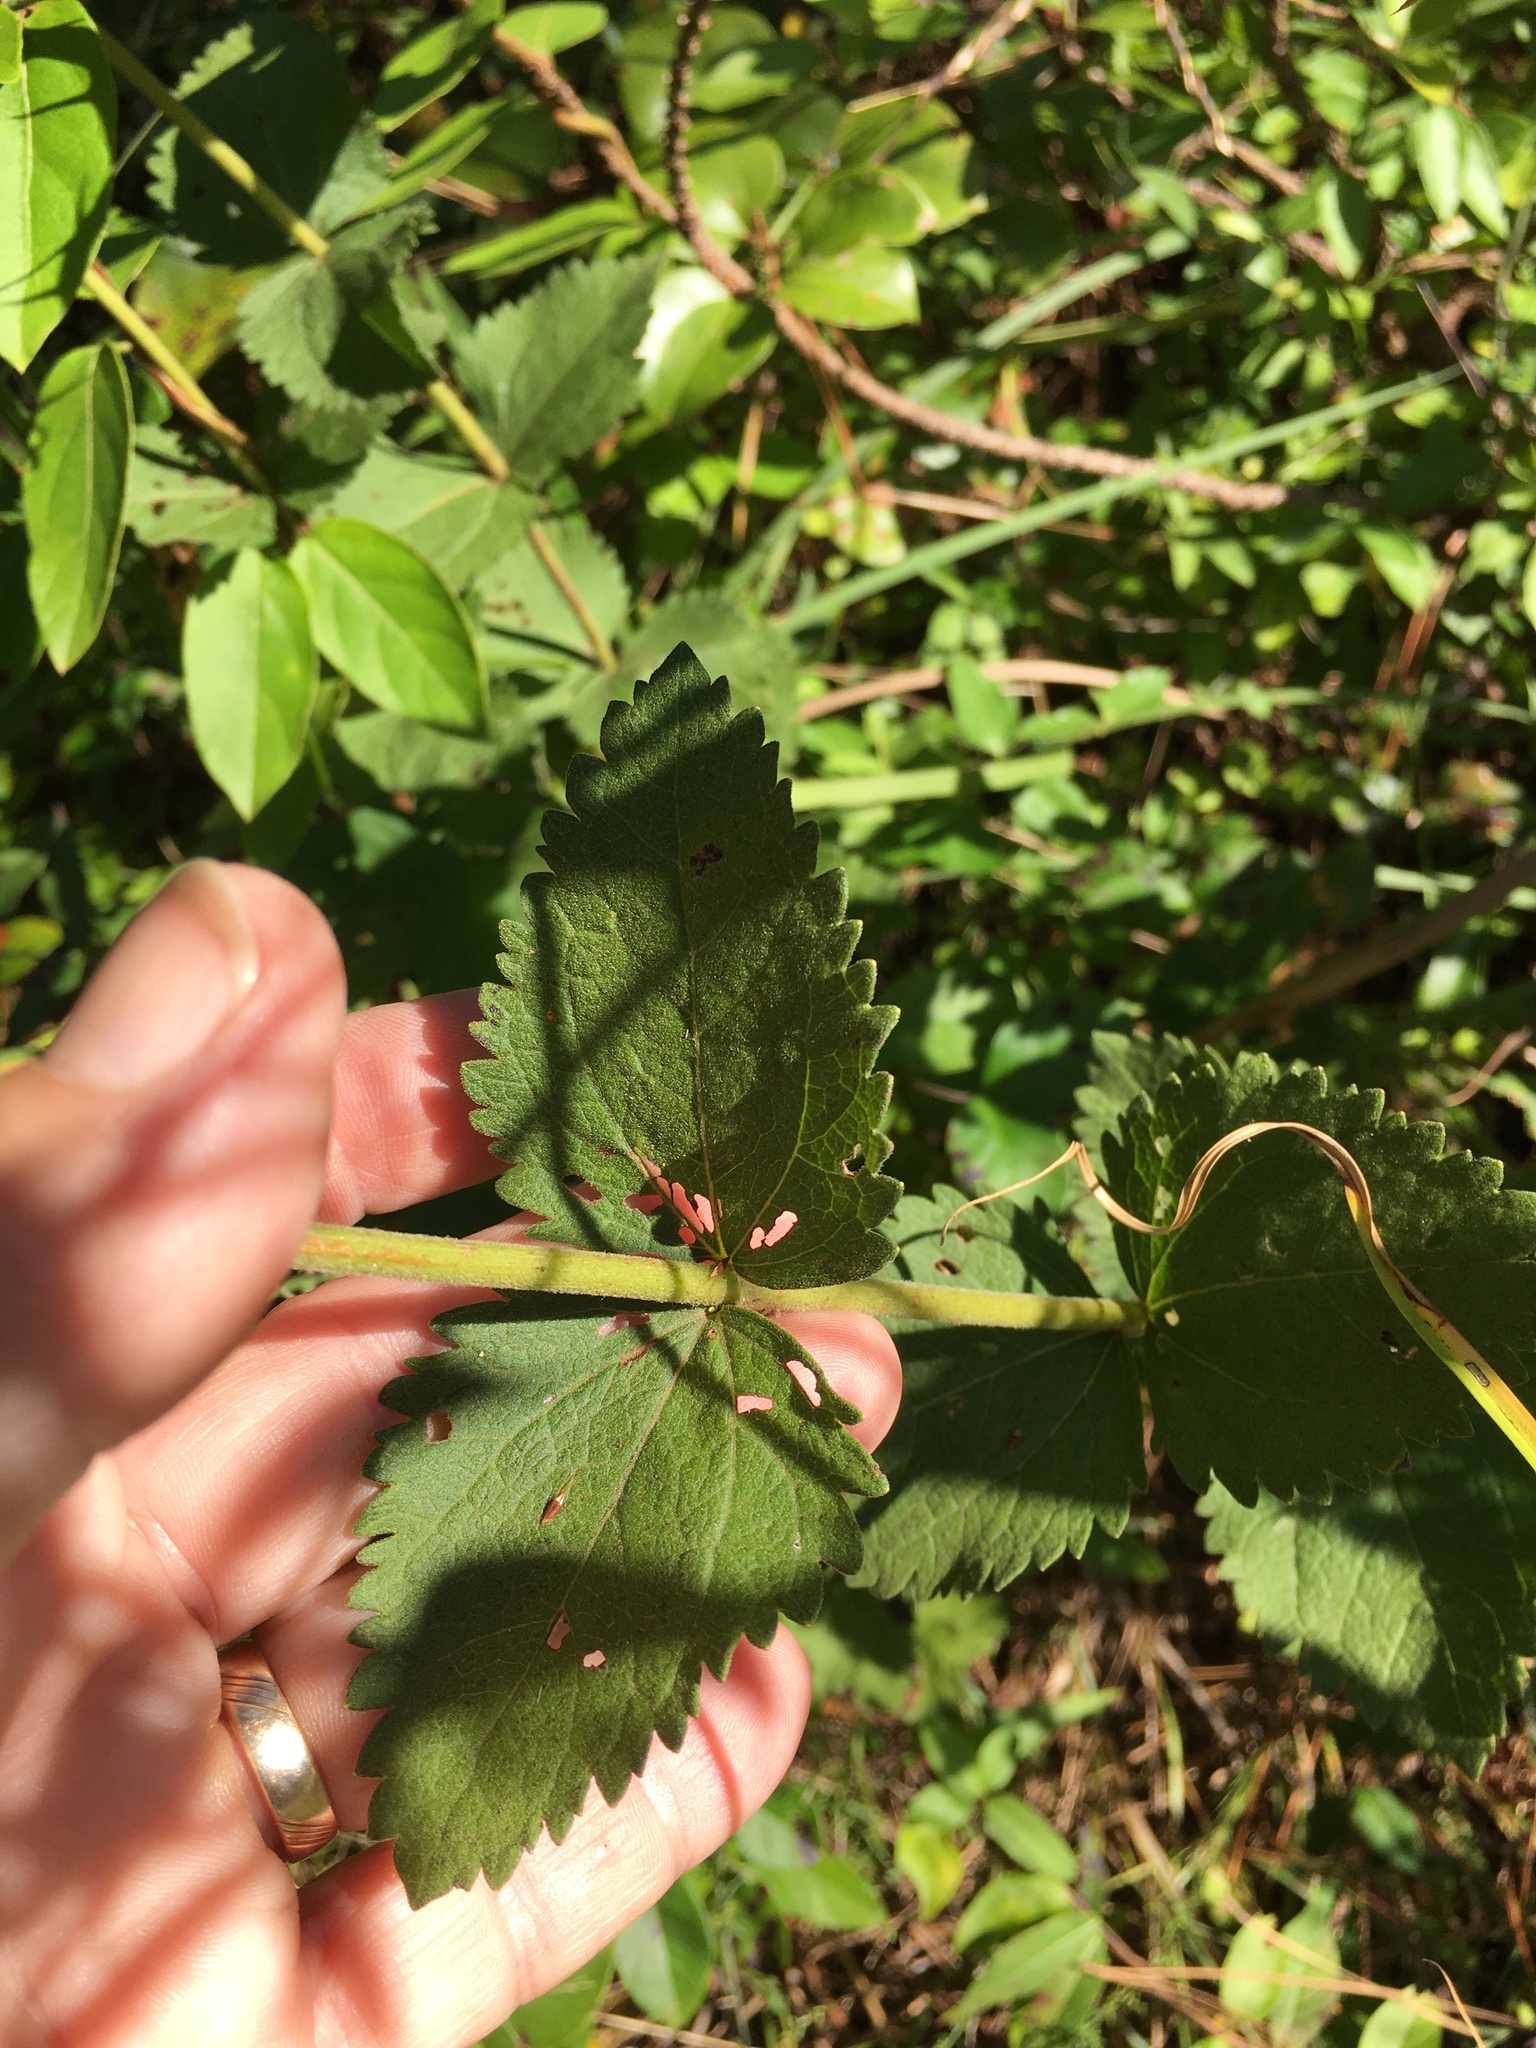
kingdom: Plantae
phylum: Tracheophyta
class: Magnoliopsida
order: Asterales
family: Asteraceae
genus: Eupatorium
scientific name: Eupatorium rotundifolium
